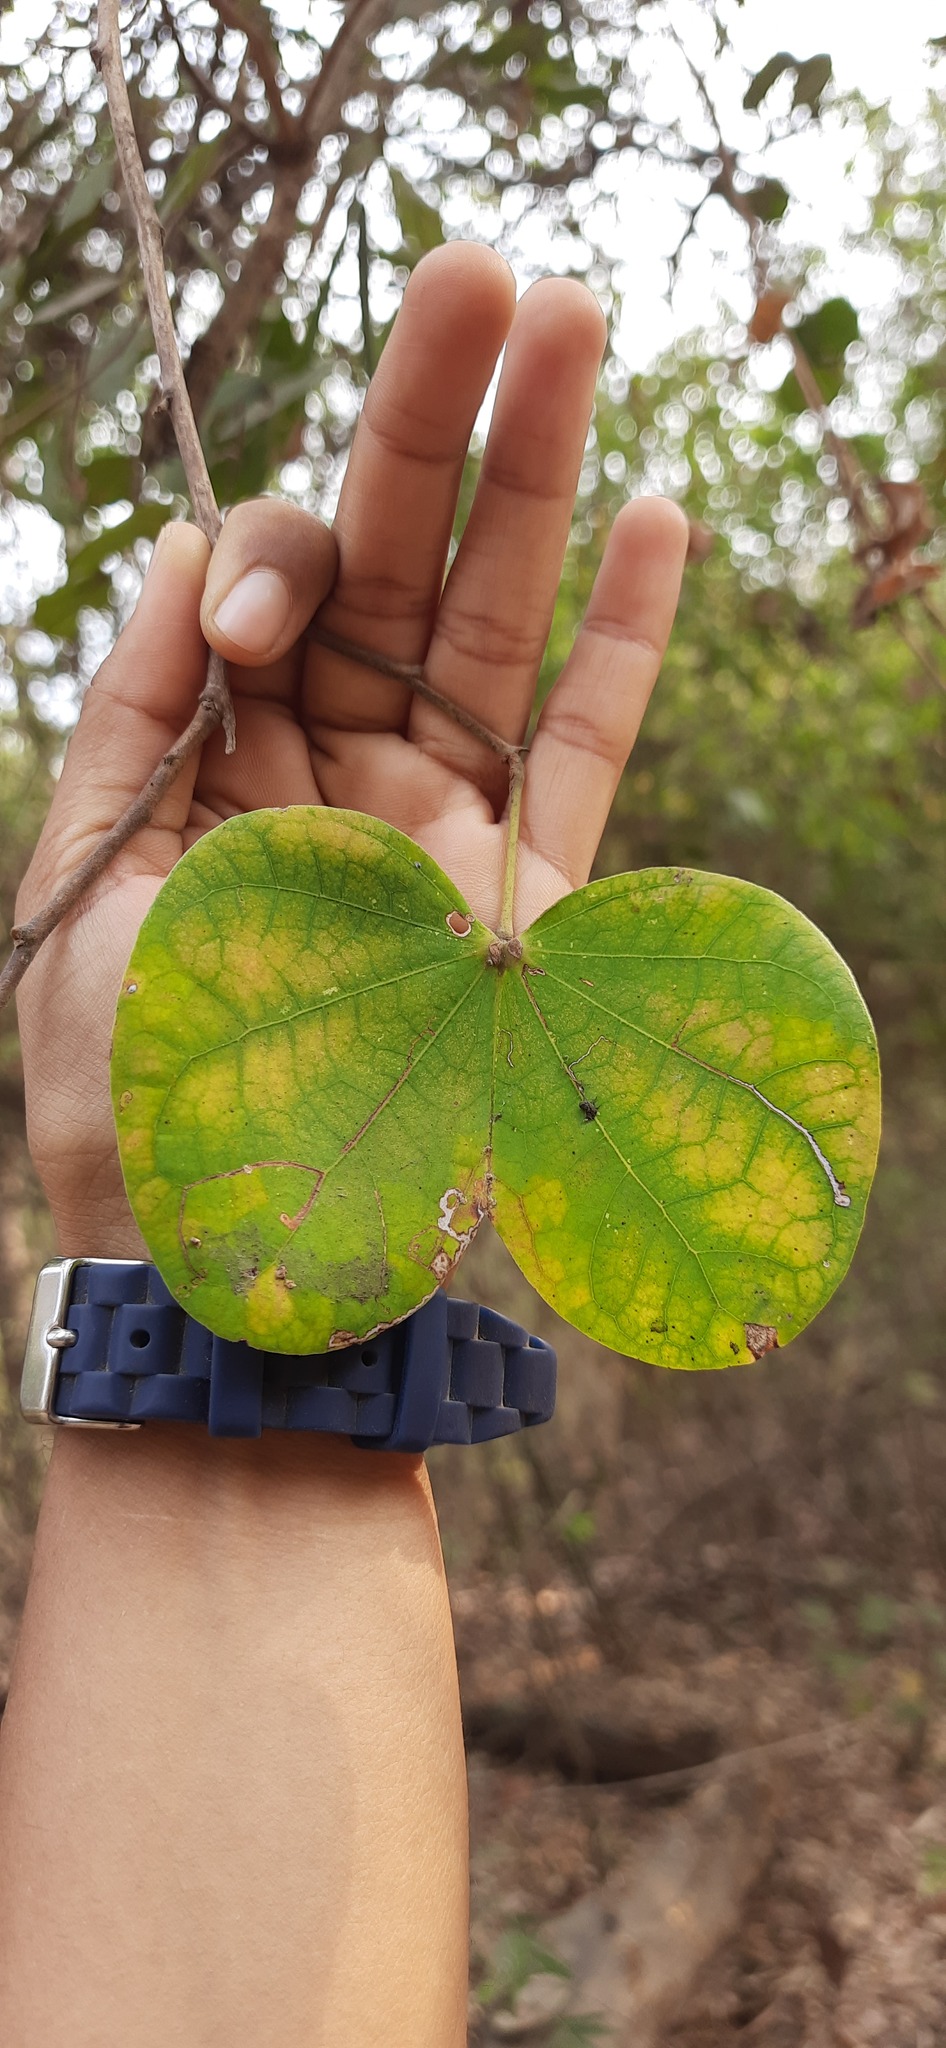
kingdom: Plantae
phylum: Tracheophyta
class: Magnoliopsida
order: Fabales
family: Fabaceae
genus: Piliostigma
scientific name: Piliostigma malabaricum
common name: Malabar bauhinia
